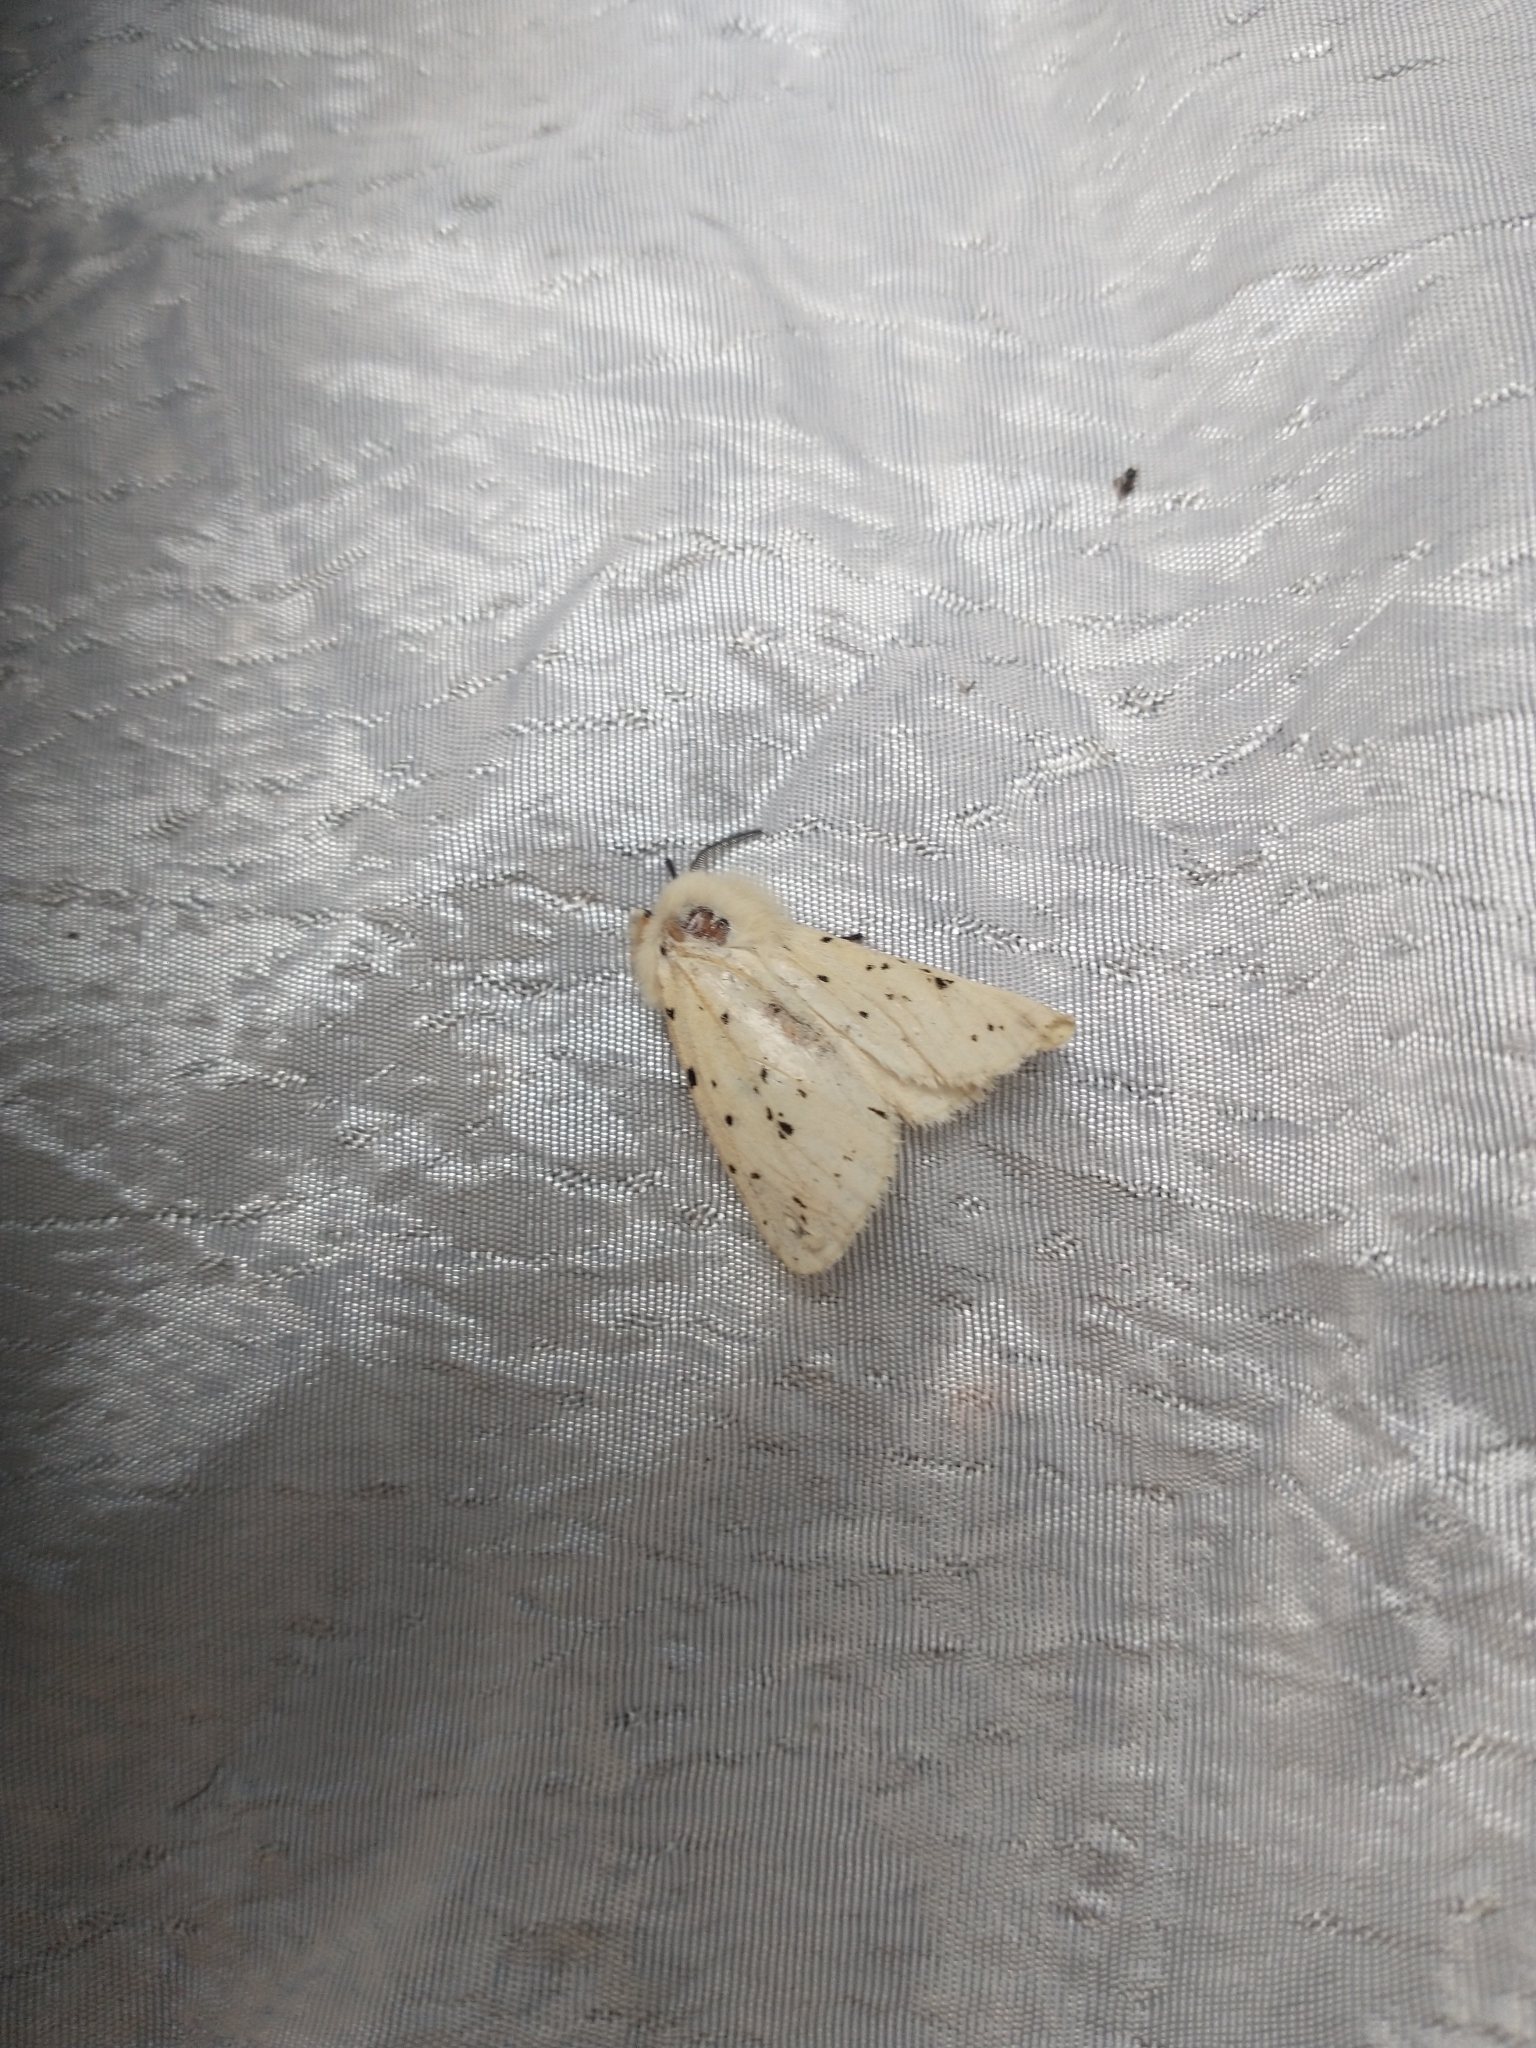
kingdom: Animalia
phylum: Arthropoda
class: Insecta
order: Lepidoptera
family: Erebidae
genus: Spilosoma
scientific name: Spilosoma lubricipeda
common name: White ermine
